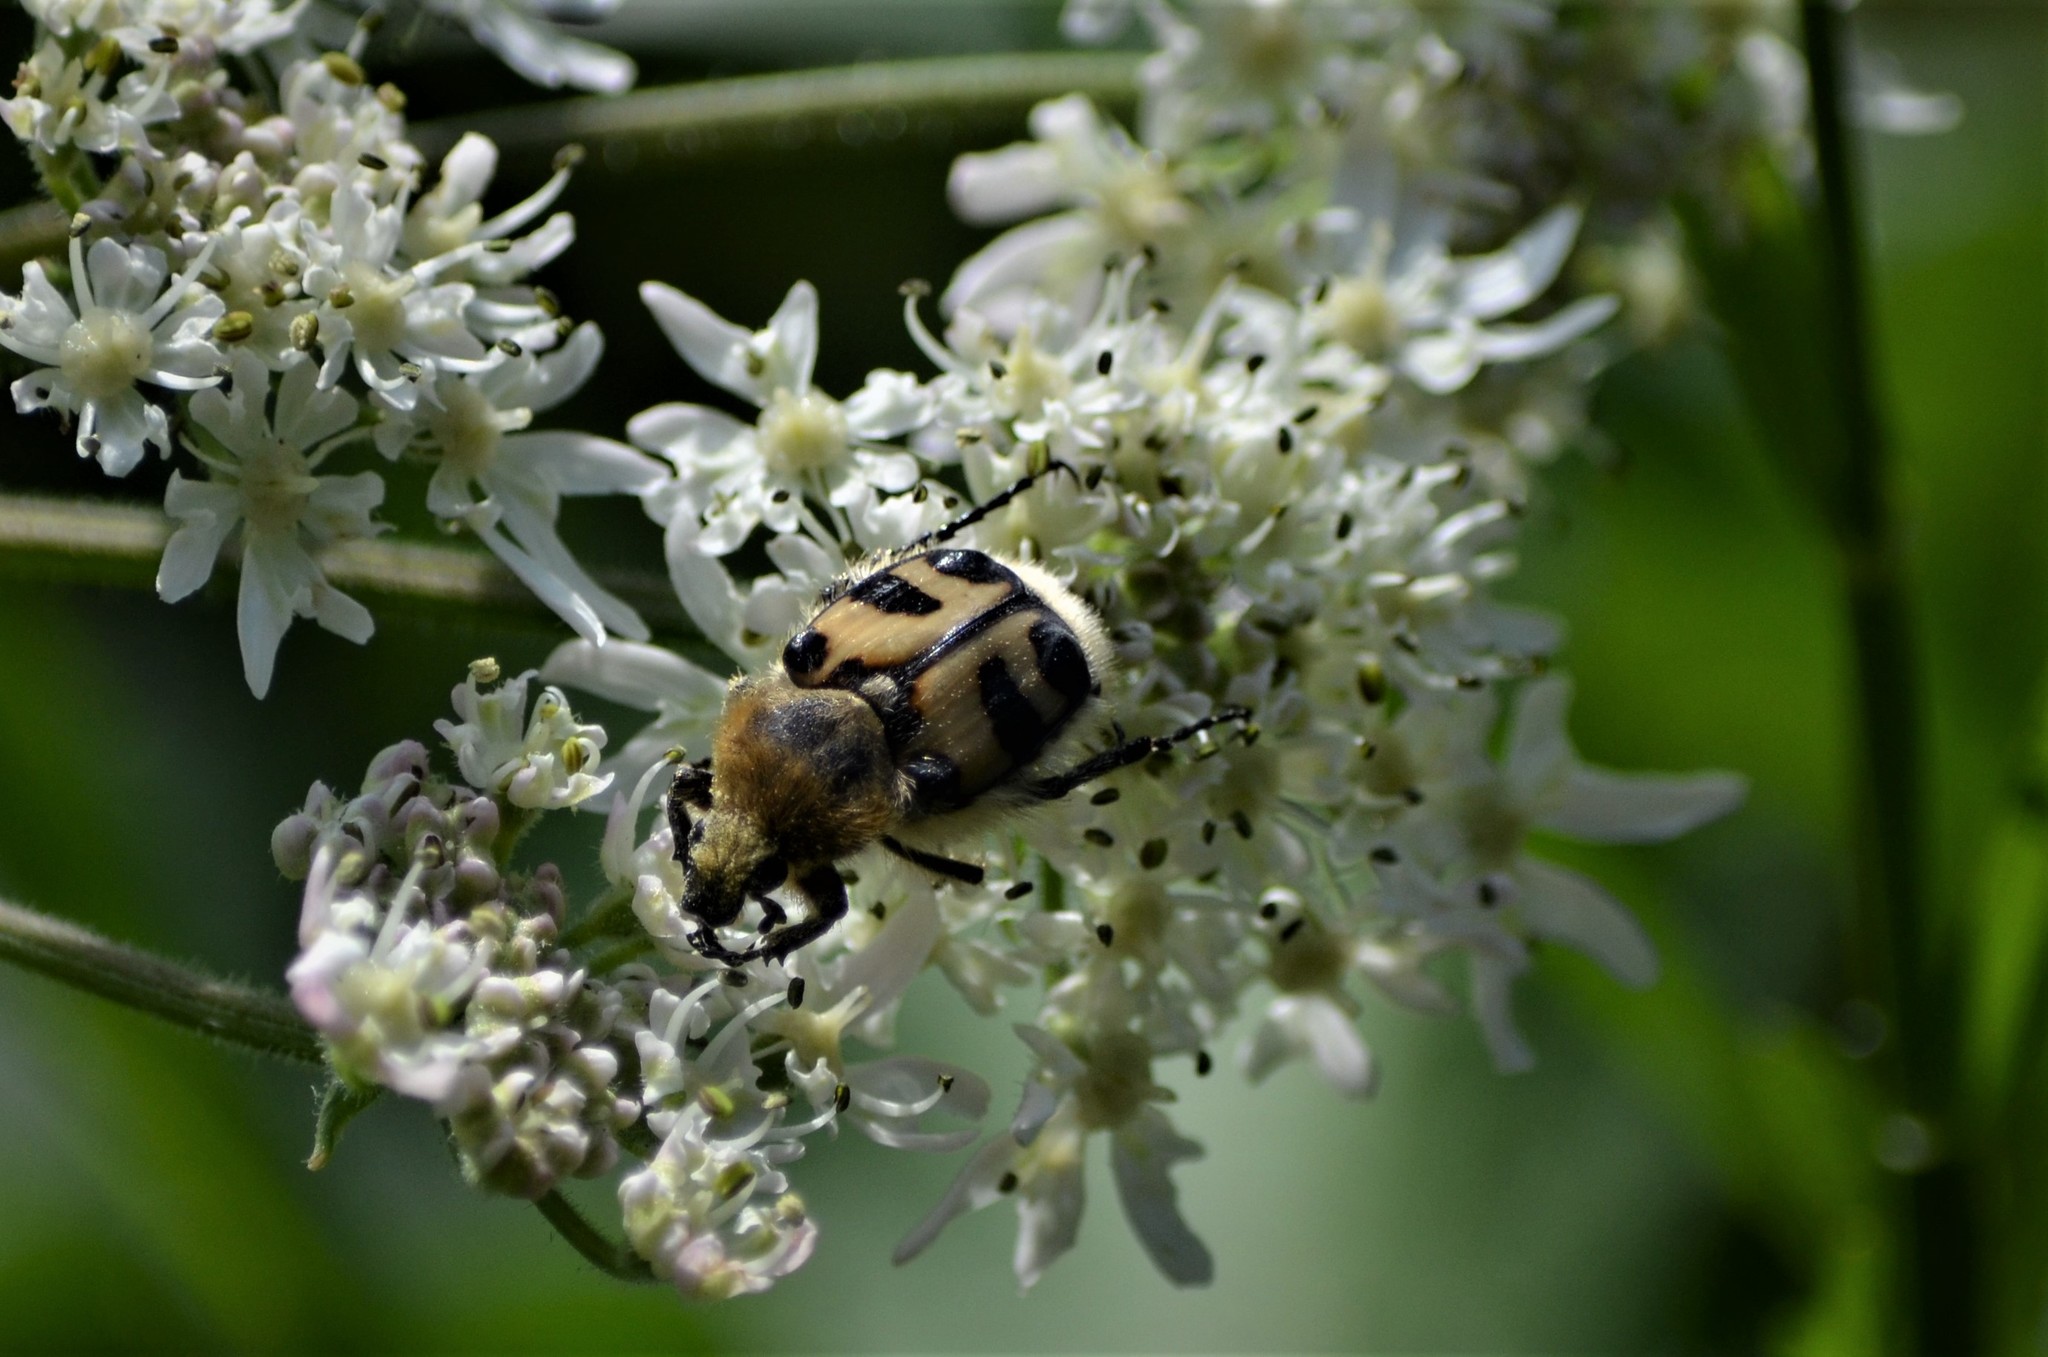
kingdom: Animalia
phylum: Arthropoda
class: Insecta
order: Coleoptera
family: Scarabaeidae
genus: Trichius
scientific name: Trichius fasciatus
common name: Bee beetle
